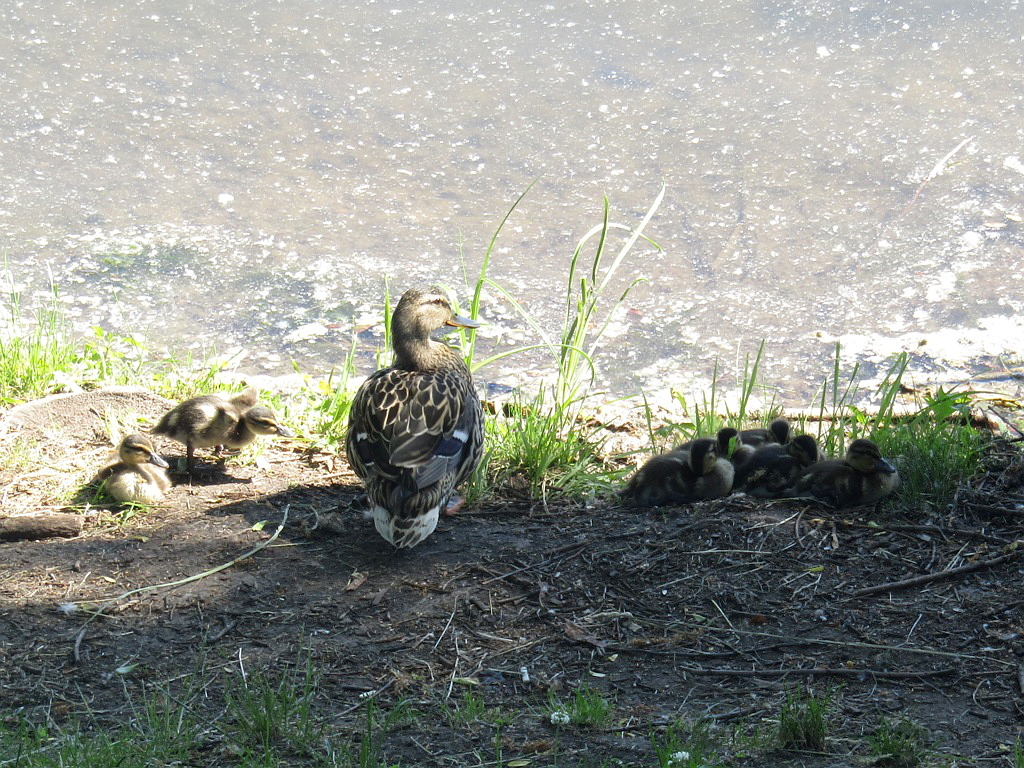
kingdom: Animalia
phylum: Chordata
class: Aves
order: Anseriformes
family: Anatidae
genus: Anas
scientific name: Anas platyrhynchos
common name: Mallard
